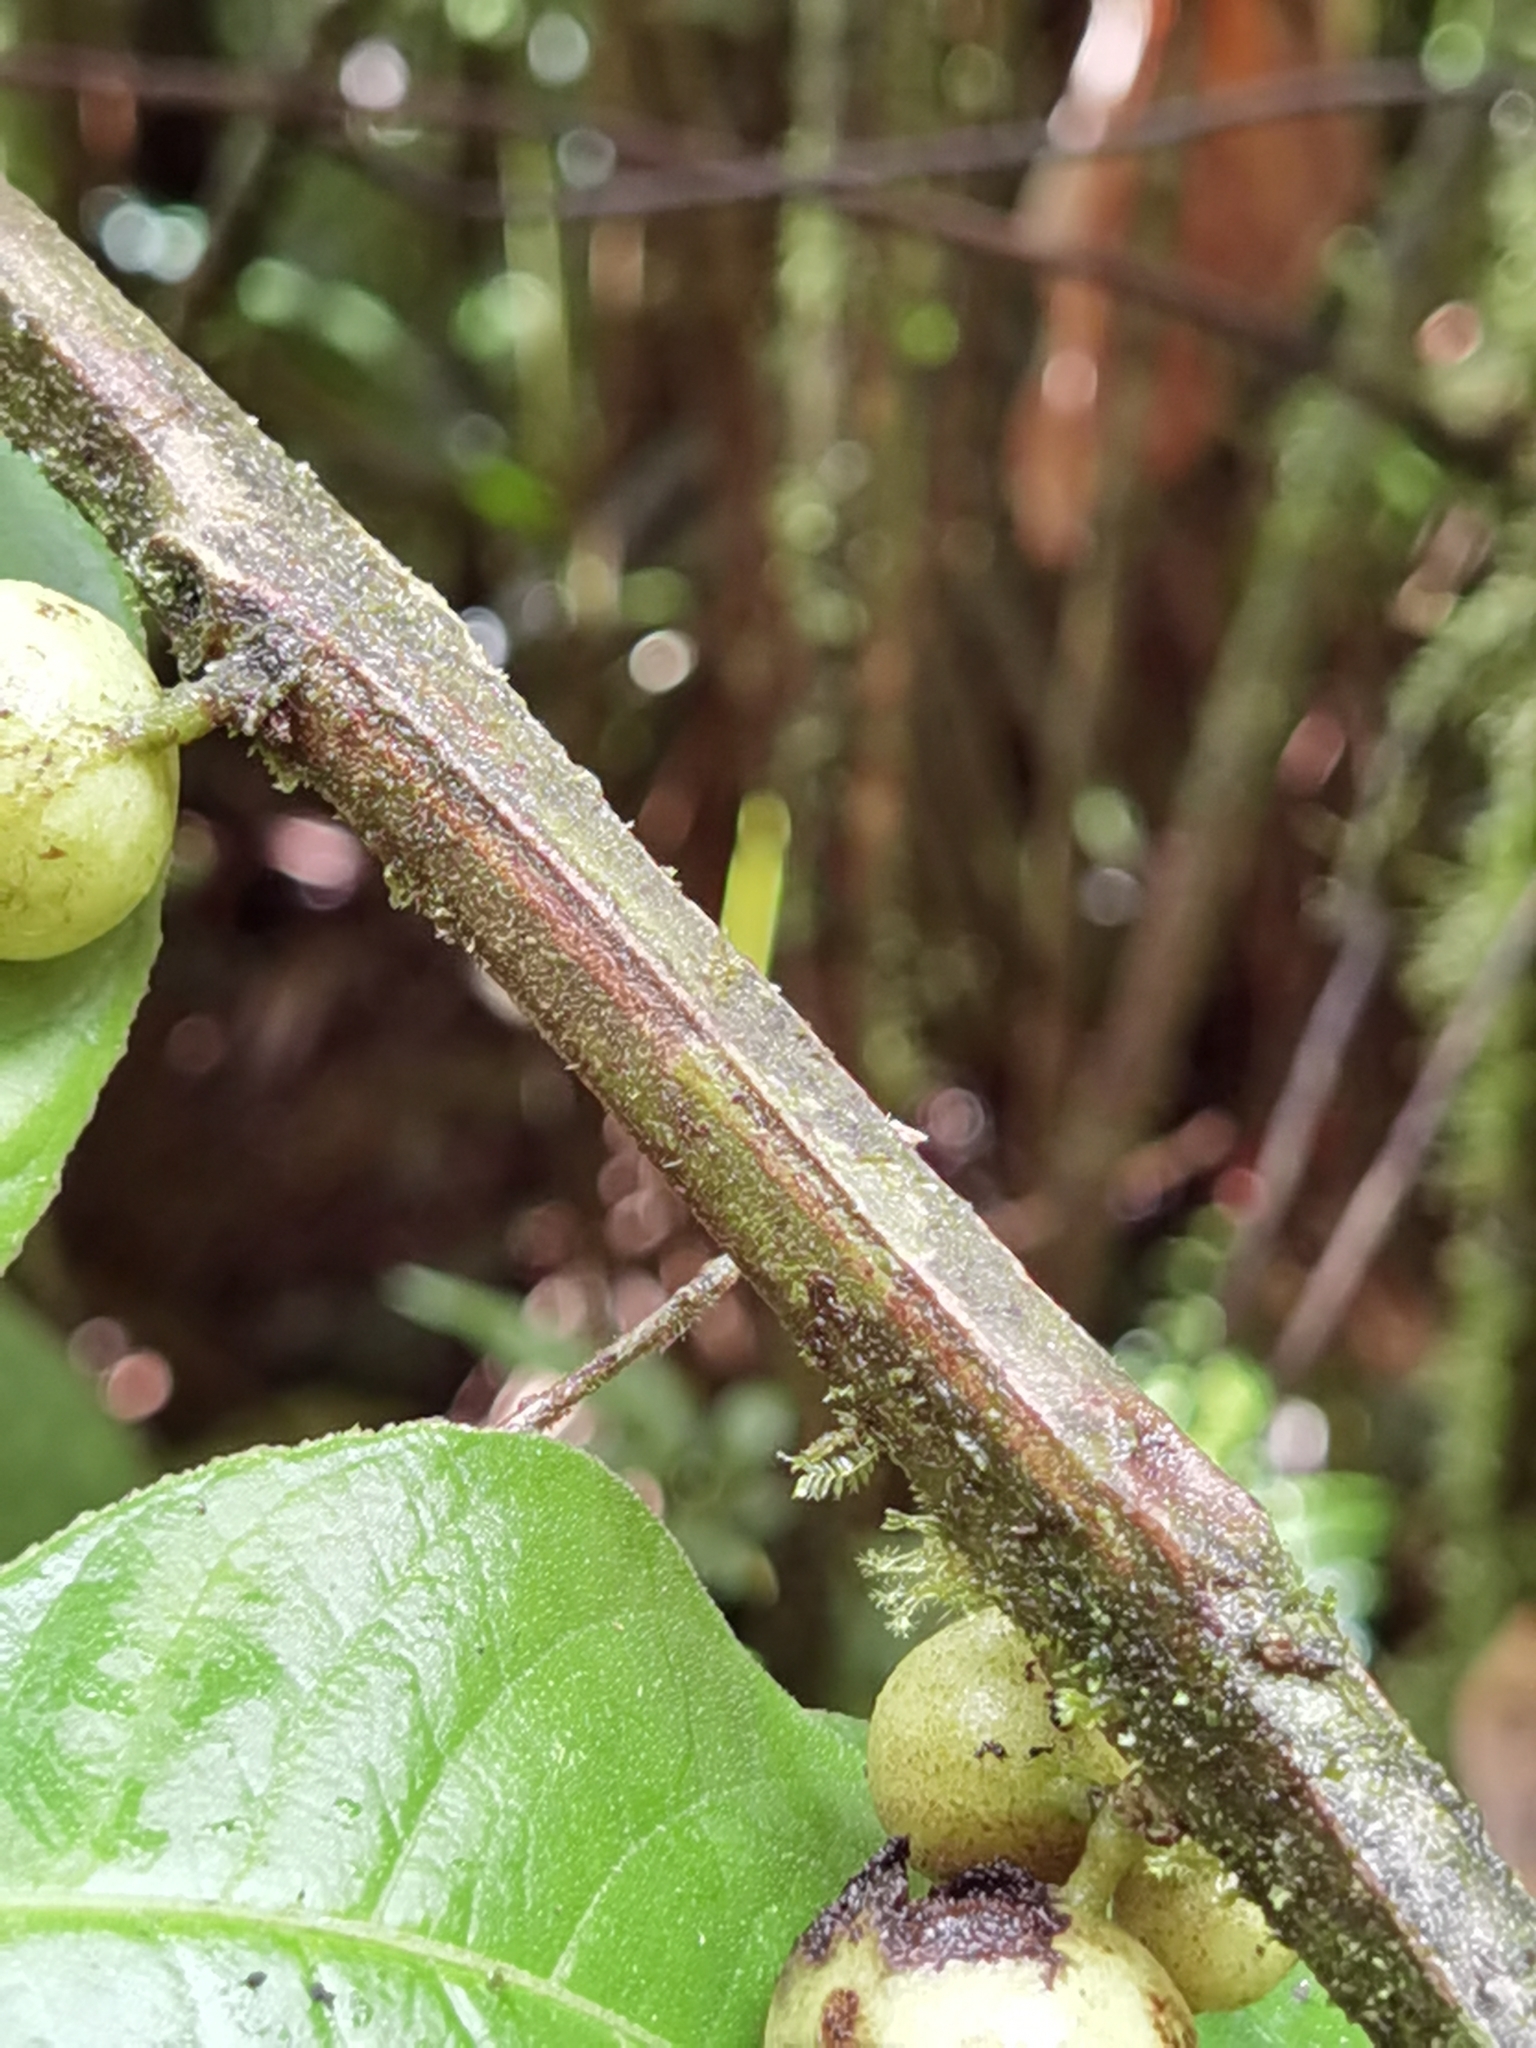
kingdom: Plantae
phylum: Tracheophyta
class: Magnoliopsida
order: Laurales
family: Siparunaceae
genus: Siparuna
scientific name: Siparuna pauciflora
